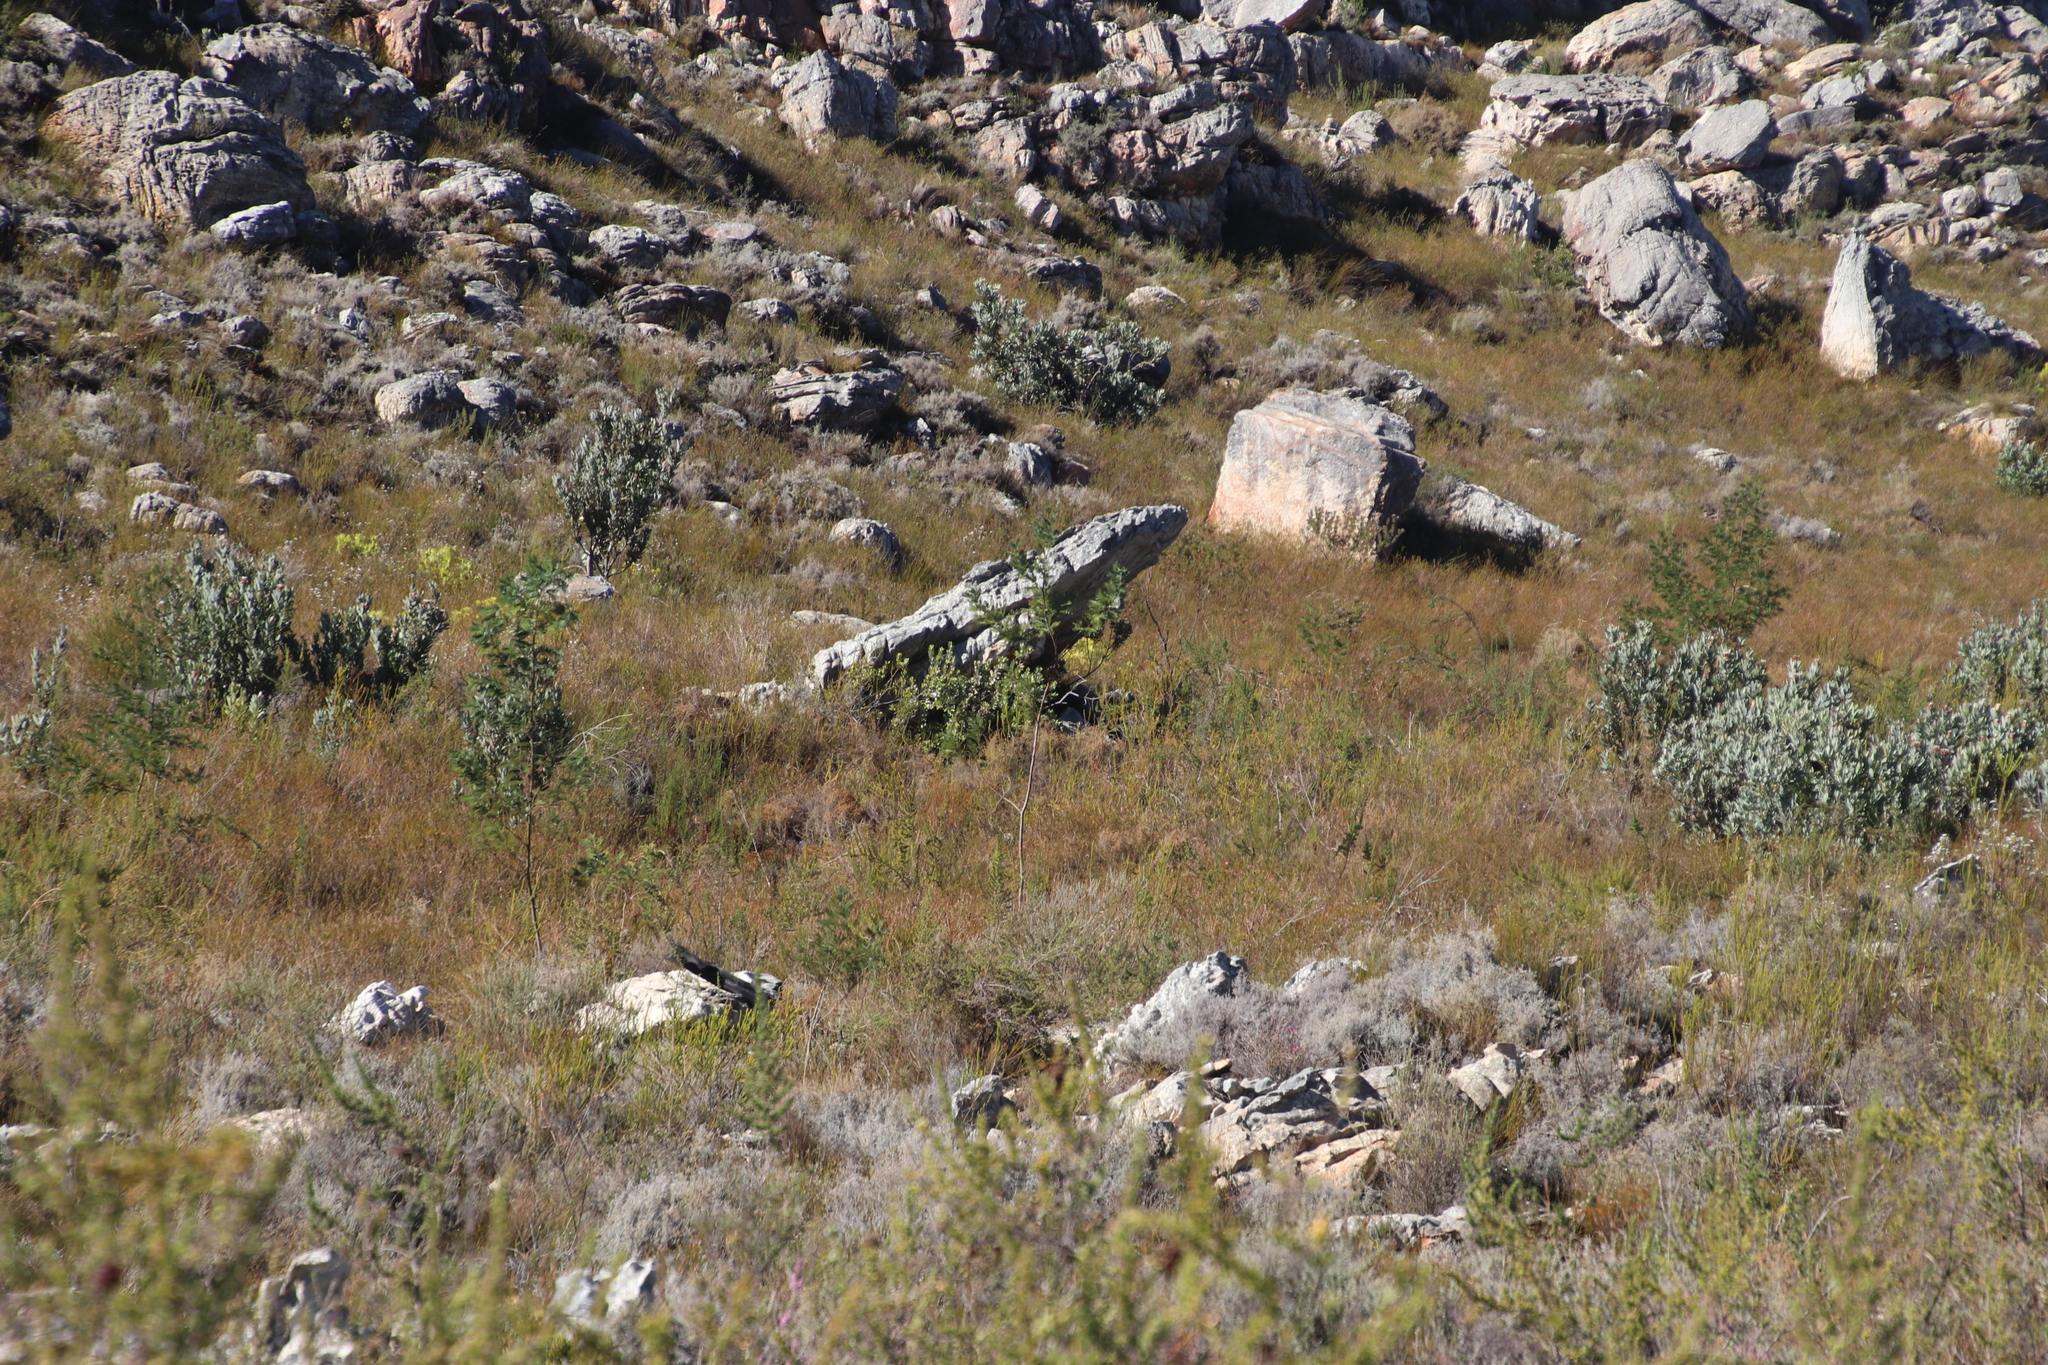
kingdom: Plantae
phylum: Tracheophyta
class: Magnoliopsida
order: Fabales
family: Fabaceae
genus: Acacia
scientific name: Acacia mearnsii
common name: Black wattle
